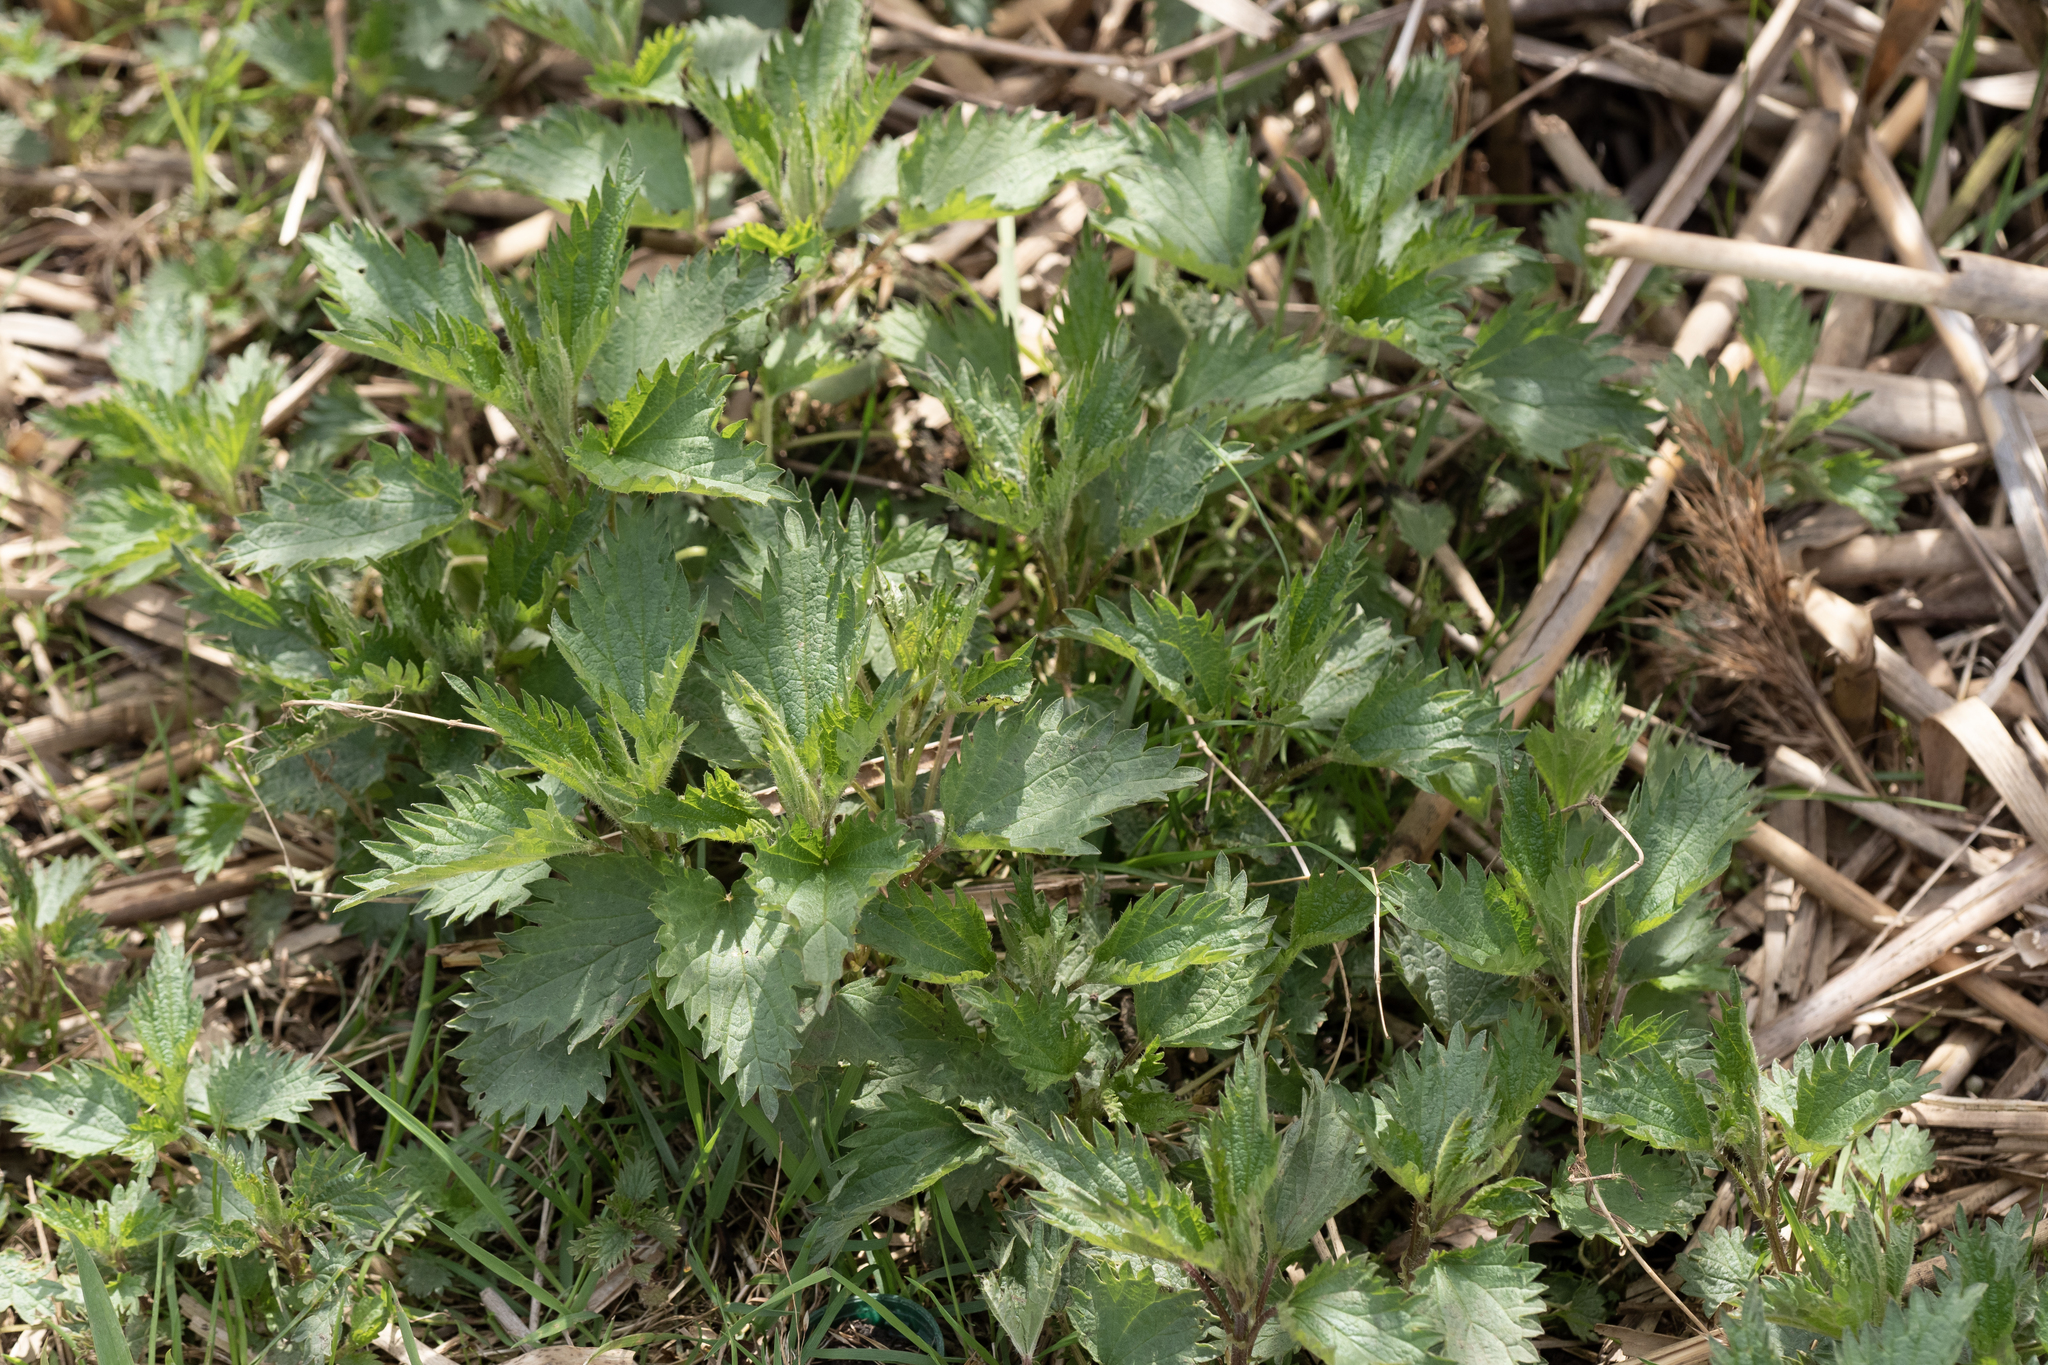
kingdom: Plantae
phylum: Tracheophyta
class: Magnoliopsida
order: Rosales
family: Urticaceae
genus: Urtica
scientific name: Urtica dioica
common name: Common nettle
